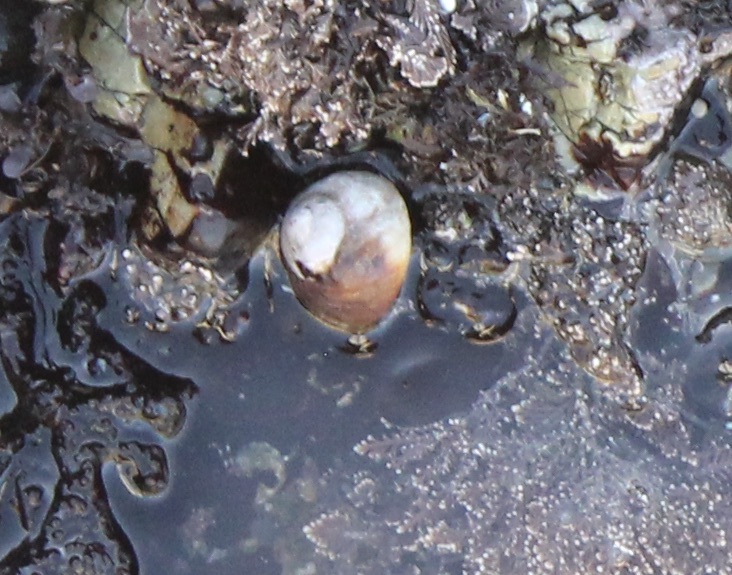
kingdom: Animalia
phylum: Mollusca
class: Gastropoda
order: Trochida
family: Tegulidae
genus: Norrisia
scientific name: Norrisia norrisii
